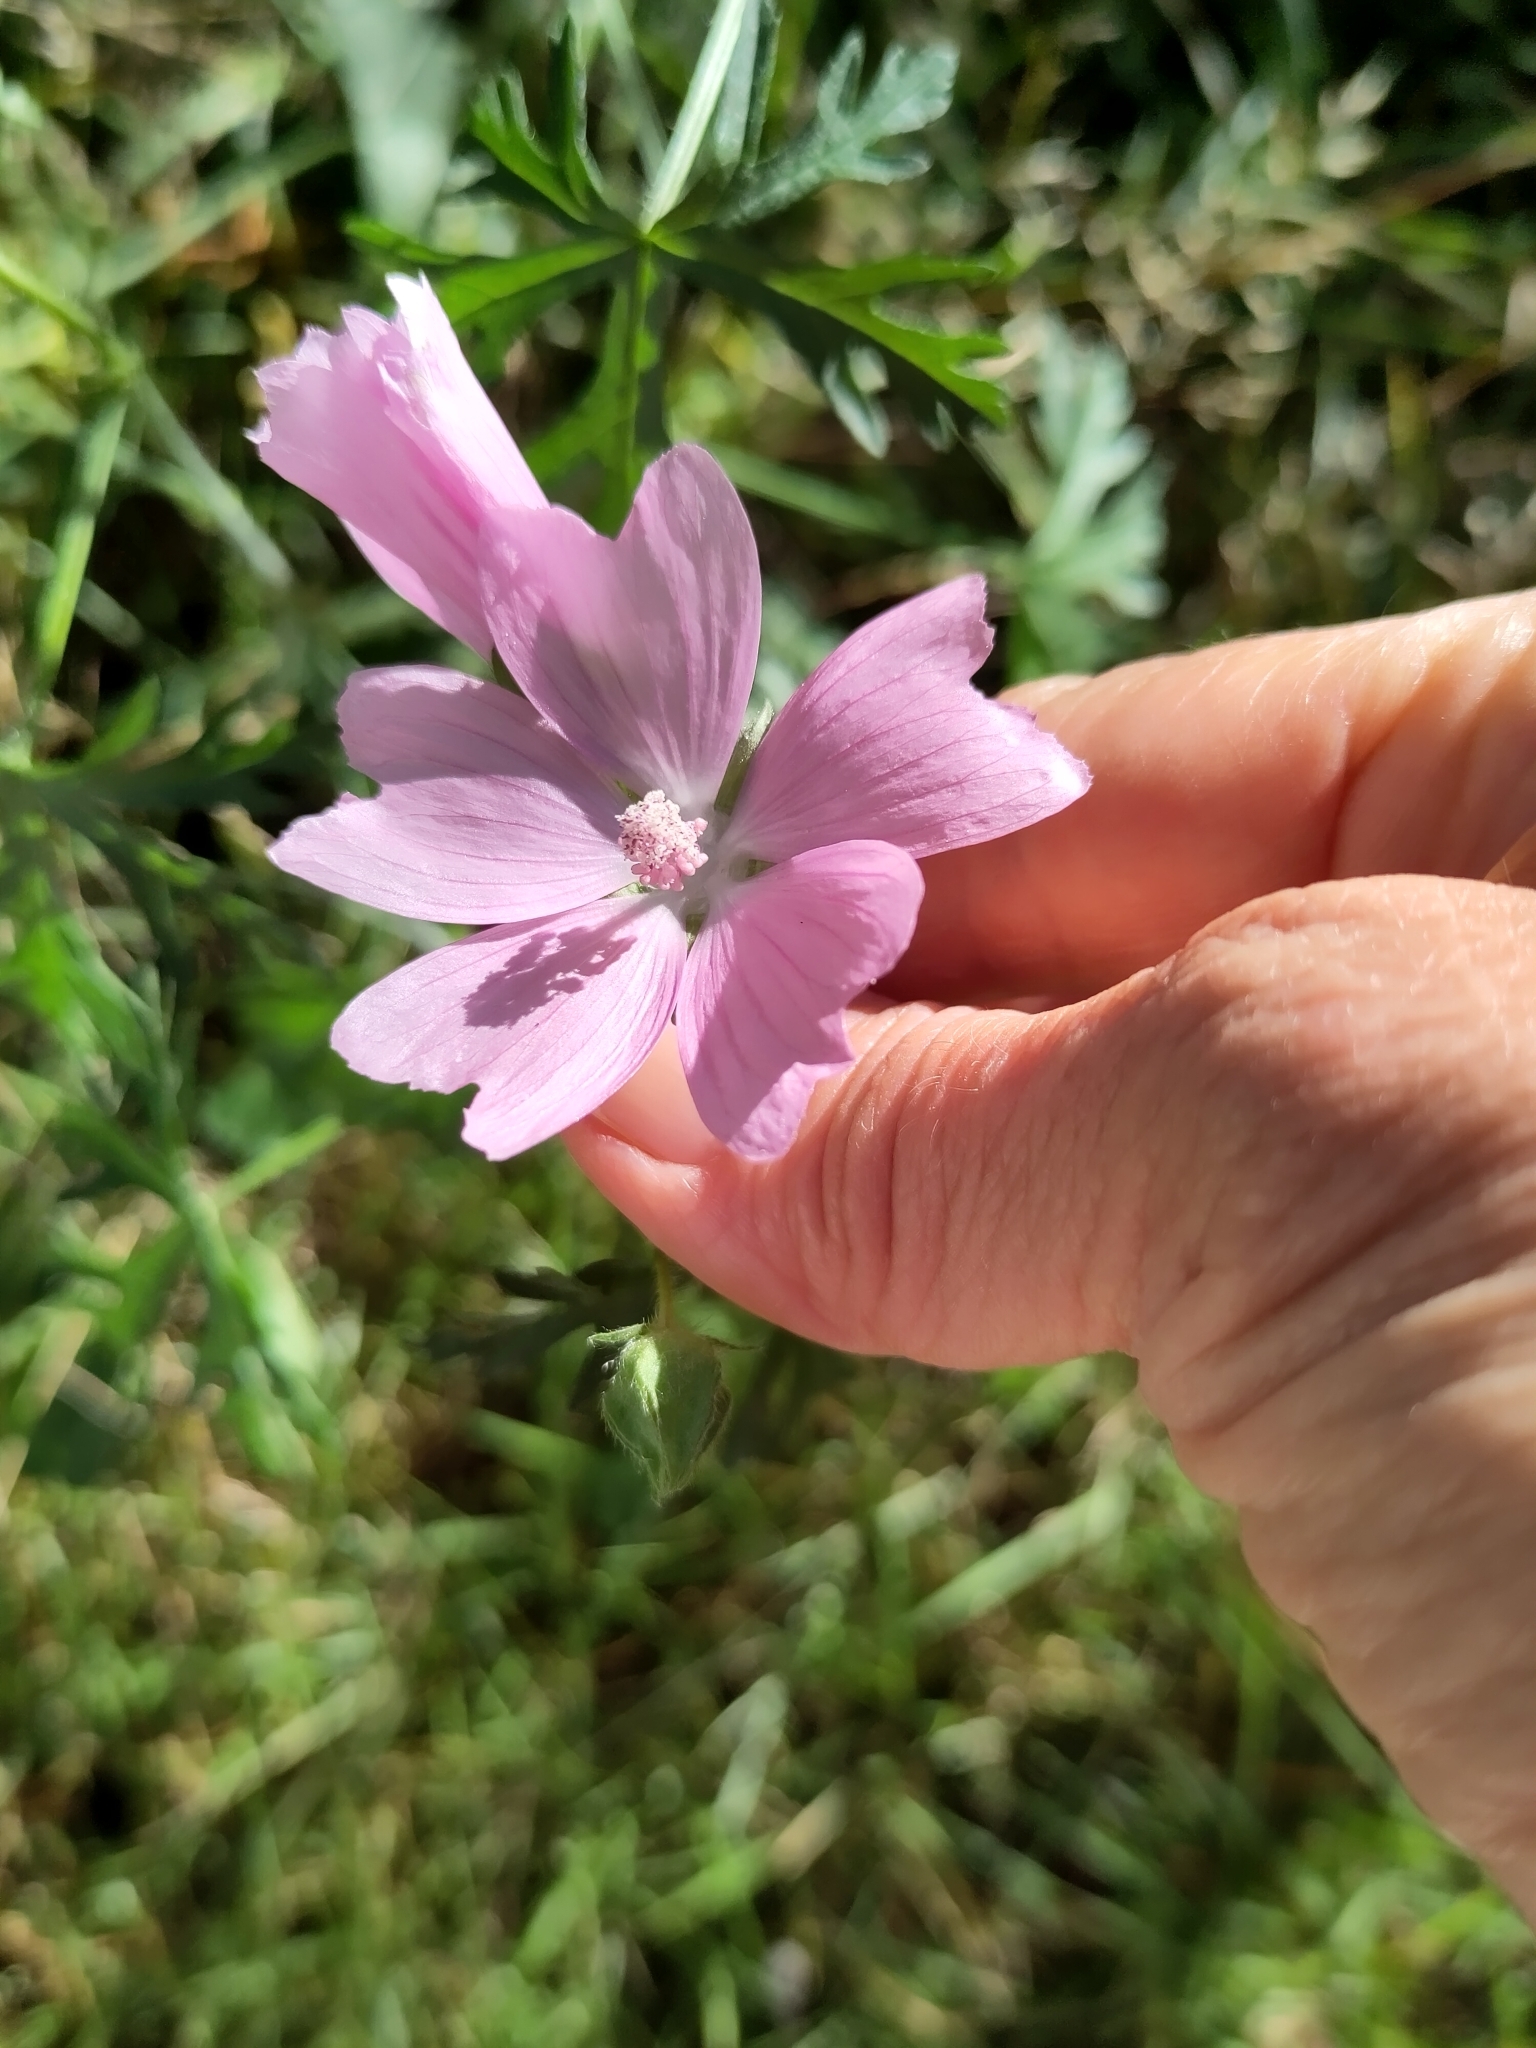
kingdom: Plantae
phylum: Tracheophyta
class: Magnoliopsida
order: Malvales
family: Malvaceae
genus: Malva
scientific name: Malva moschata
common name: Musk mallow
